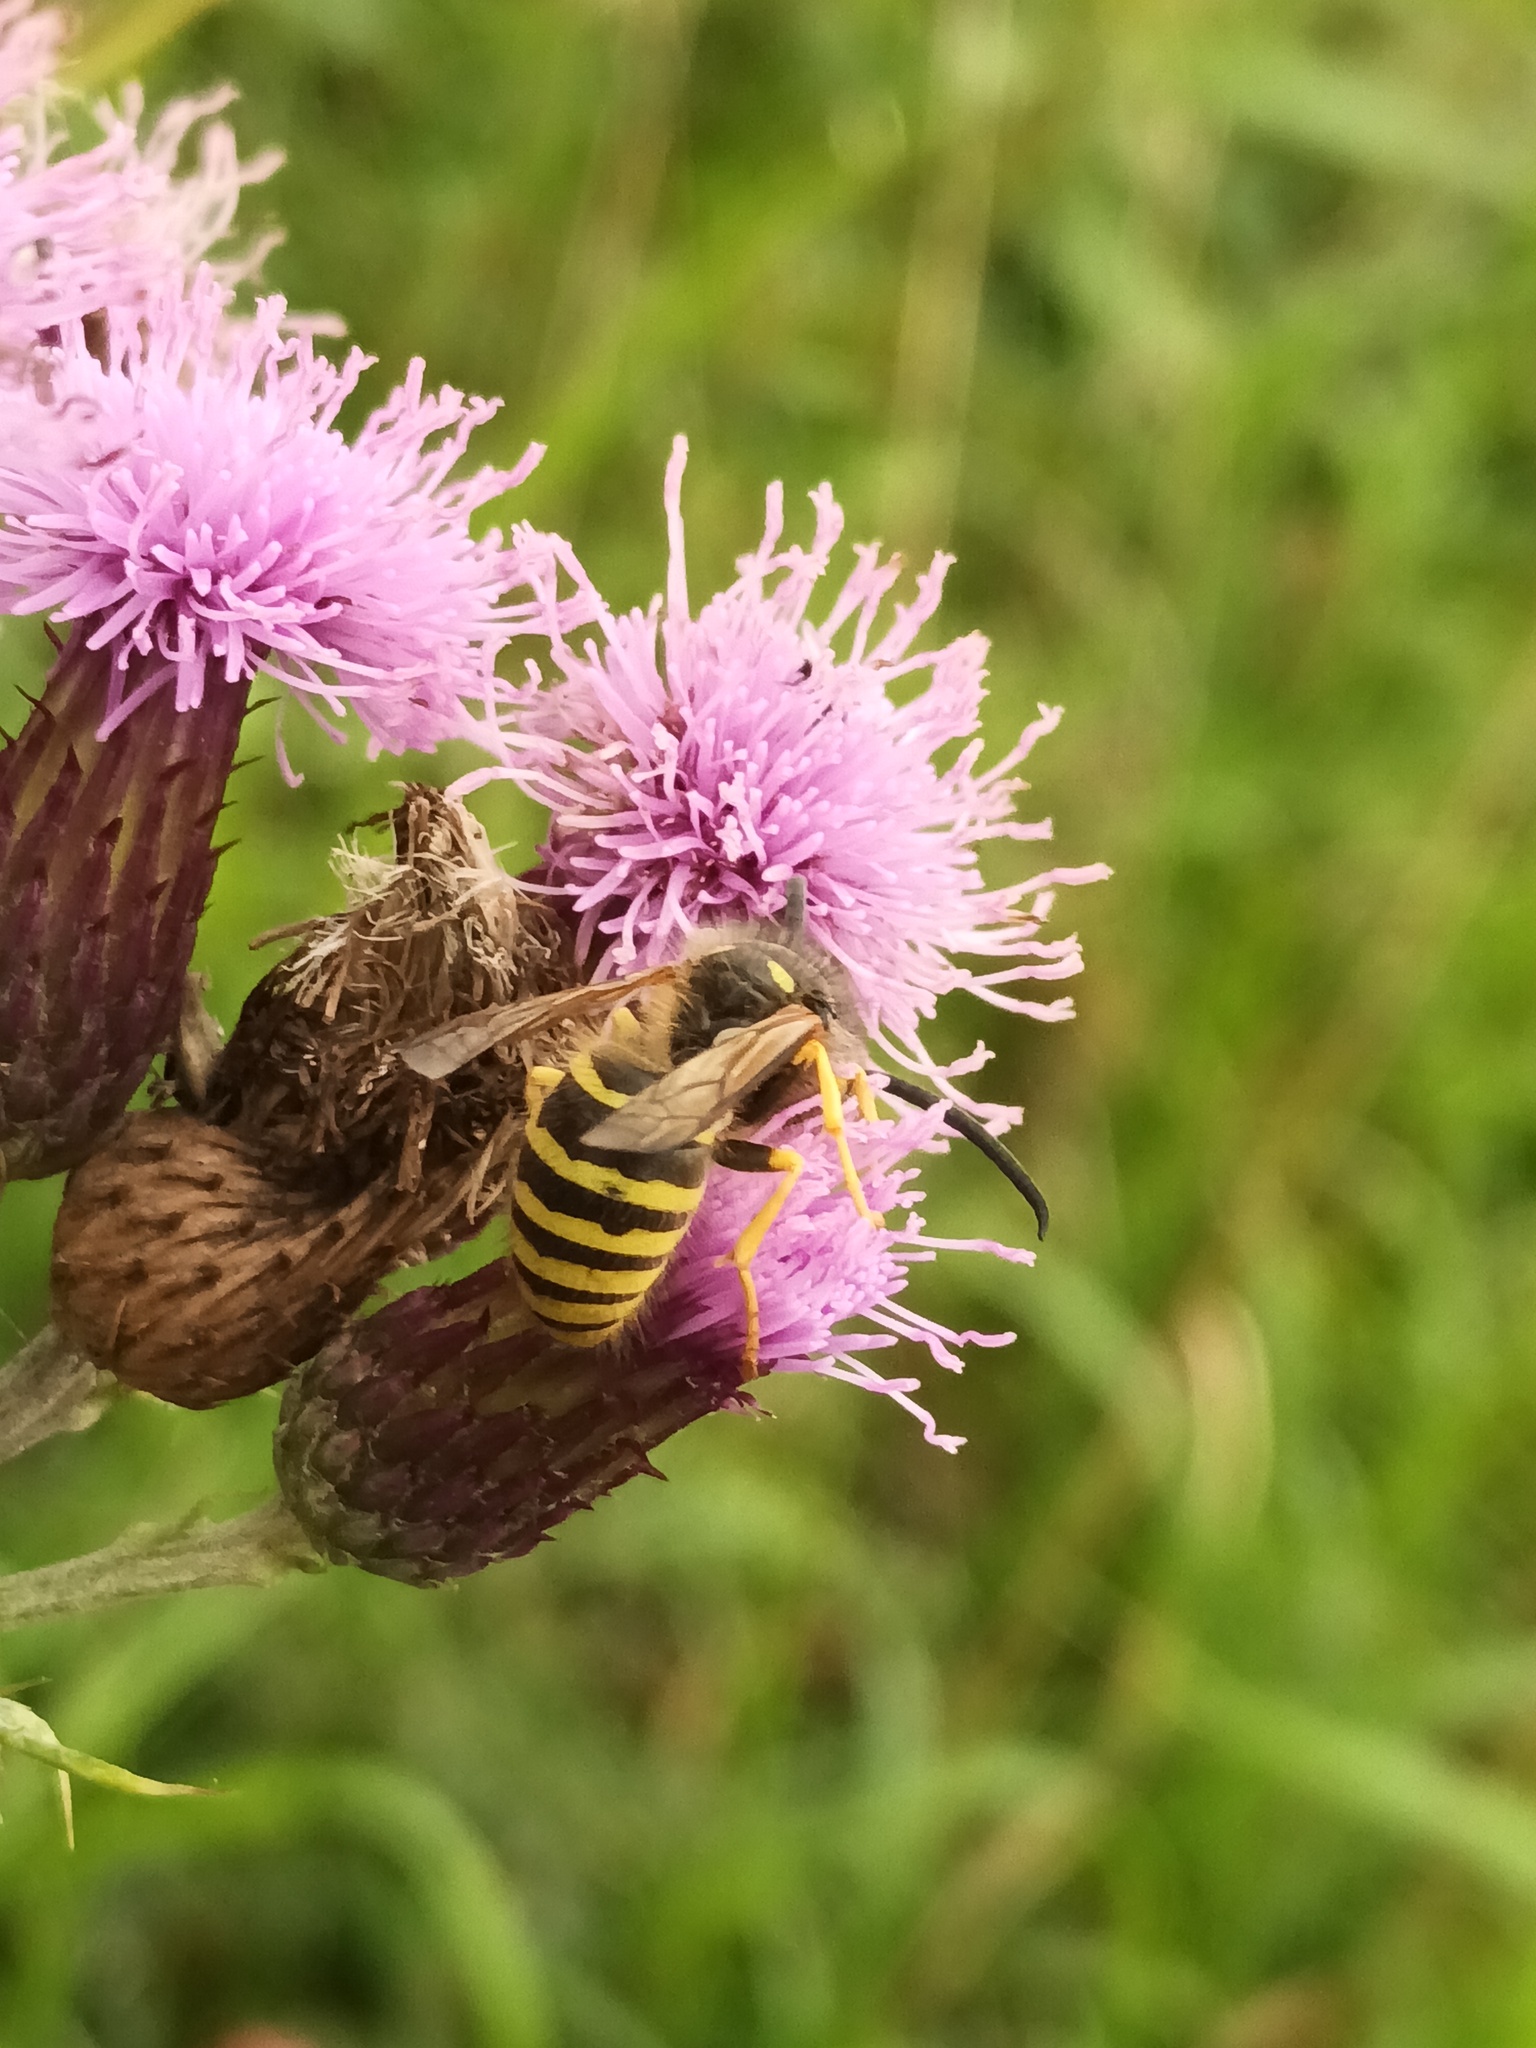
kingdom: Animalia
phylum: Arthropoda
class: Insecta
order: Hymenoptera
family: Vespidae
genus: Dolichovespula
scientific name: Dolichovespula sylvestris
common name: Tree wasp
